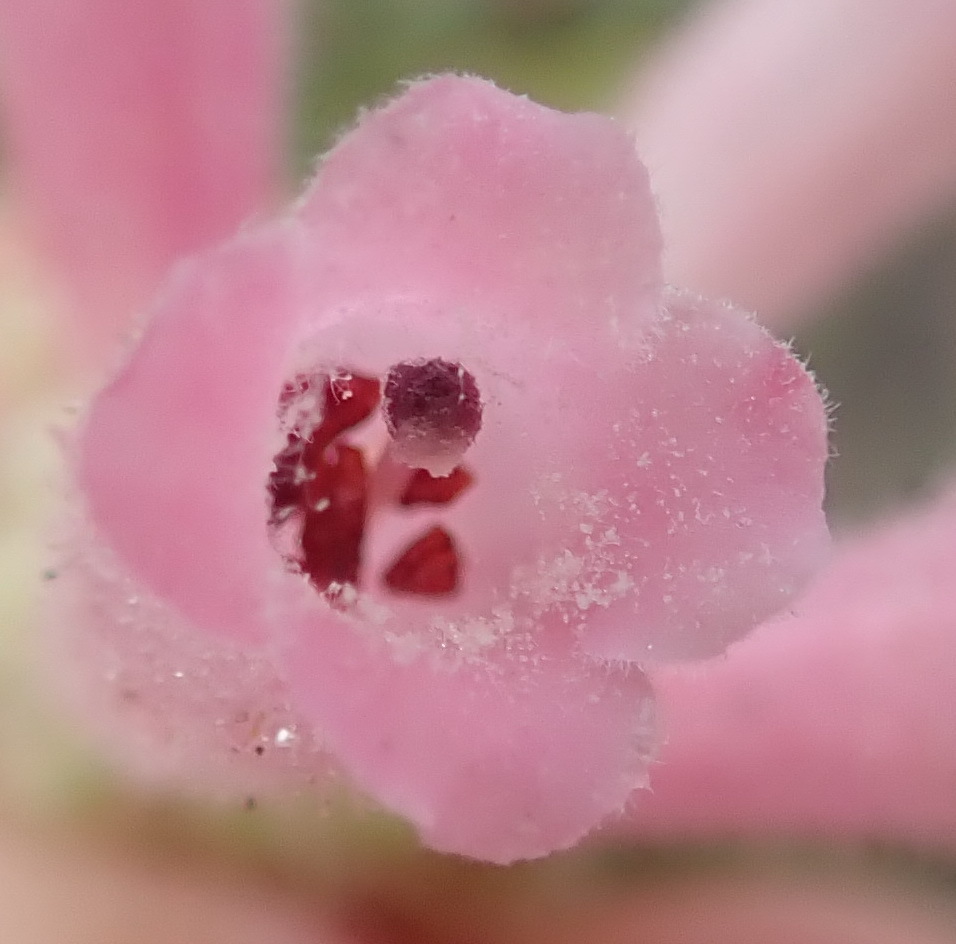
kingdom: Plantae
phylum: Tracheophyta
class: Magnoliopsida
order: Ericales
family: Ericaceae
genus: Erica
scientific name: Erica pectinifolia
